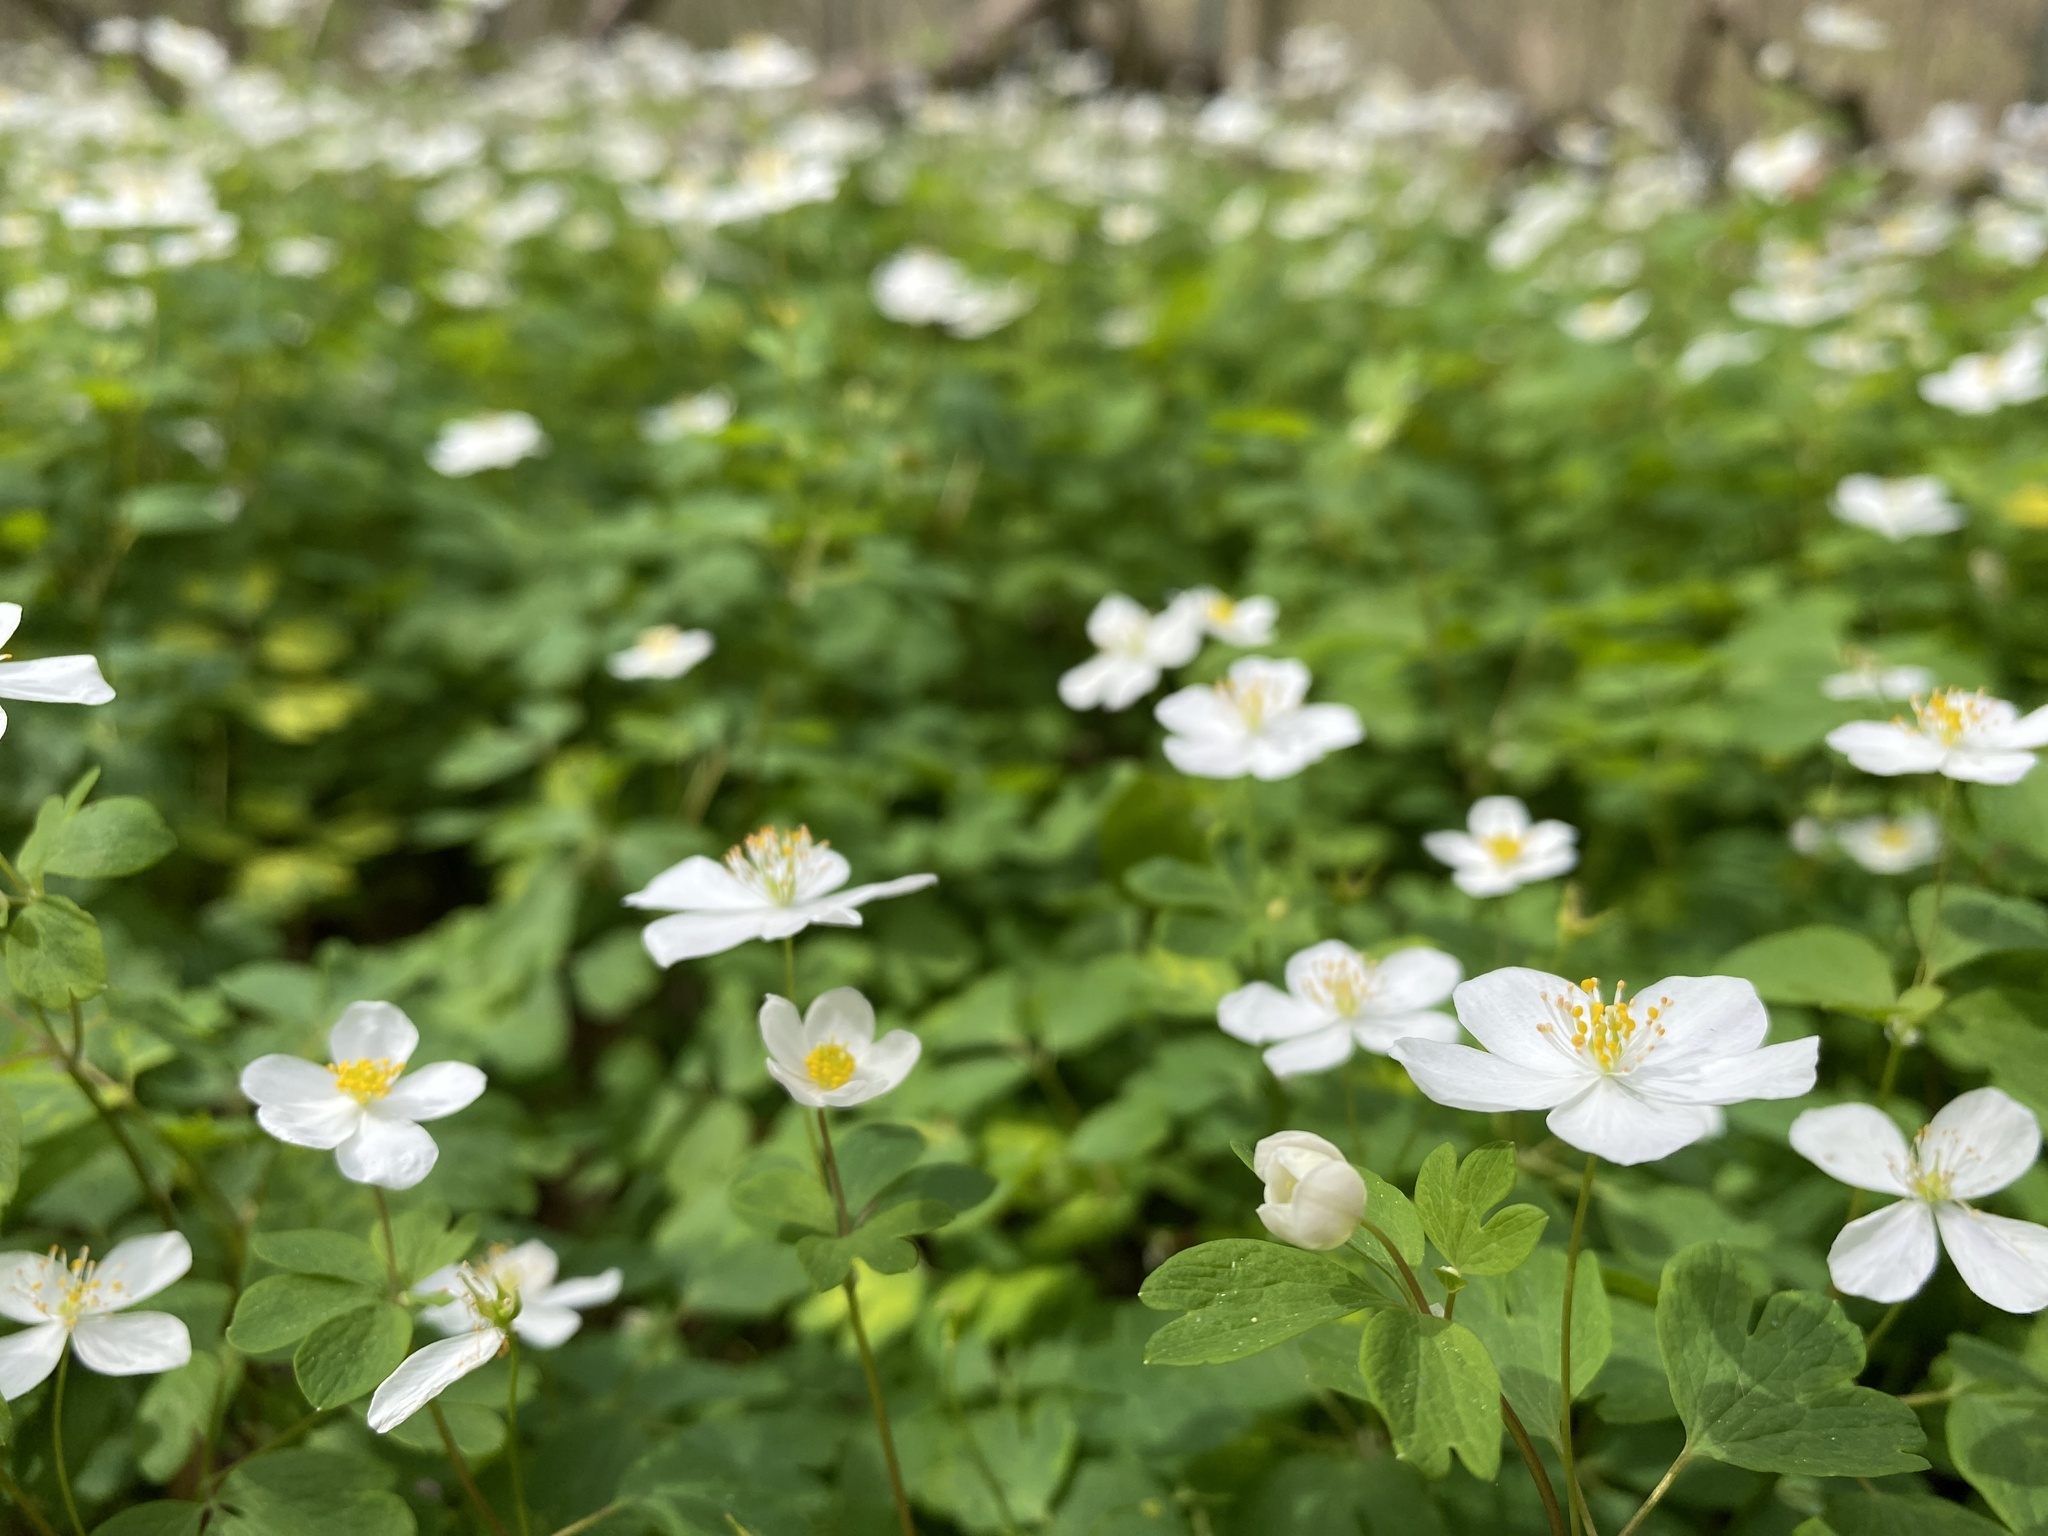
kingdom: Plantae
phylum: Tracheophyta
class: Magnoliopsida
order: Ranunculales
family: Ranunculaceae
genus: Enemion
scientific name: Enemion biternatum
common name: Eastern false rue-anemone
